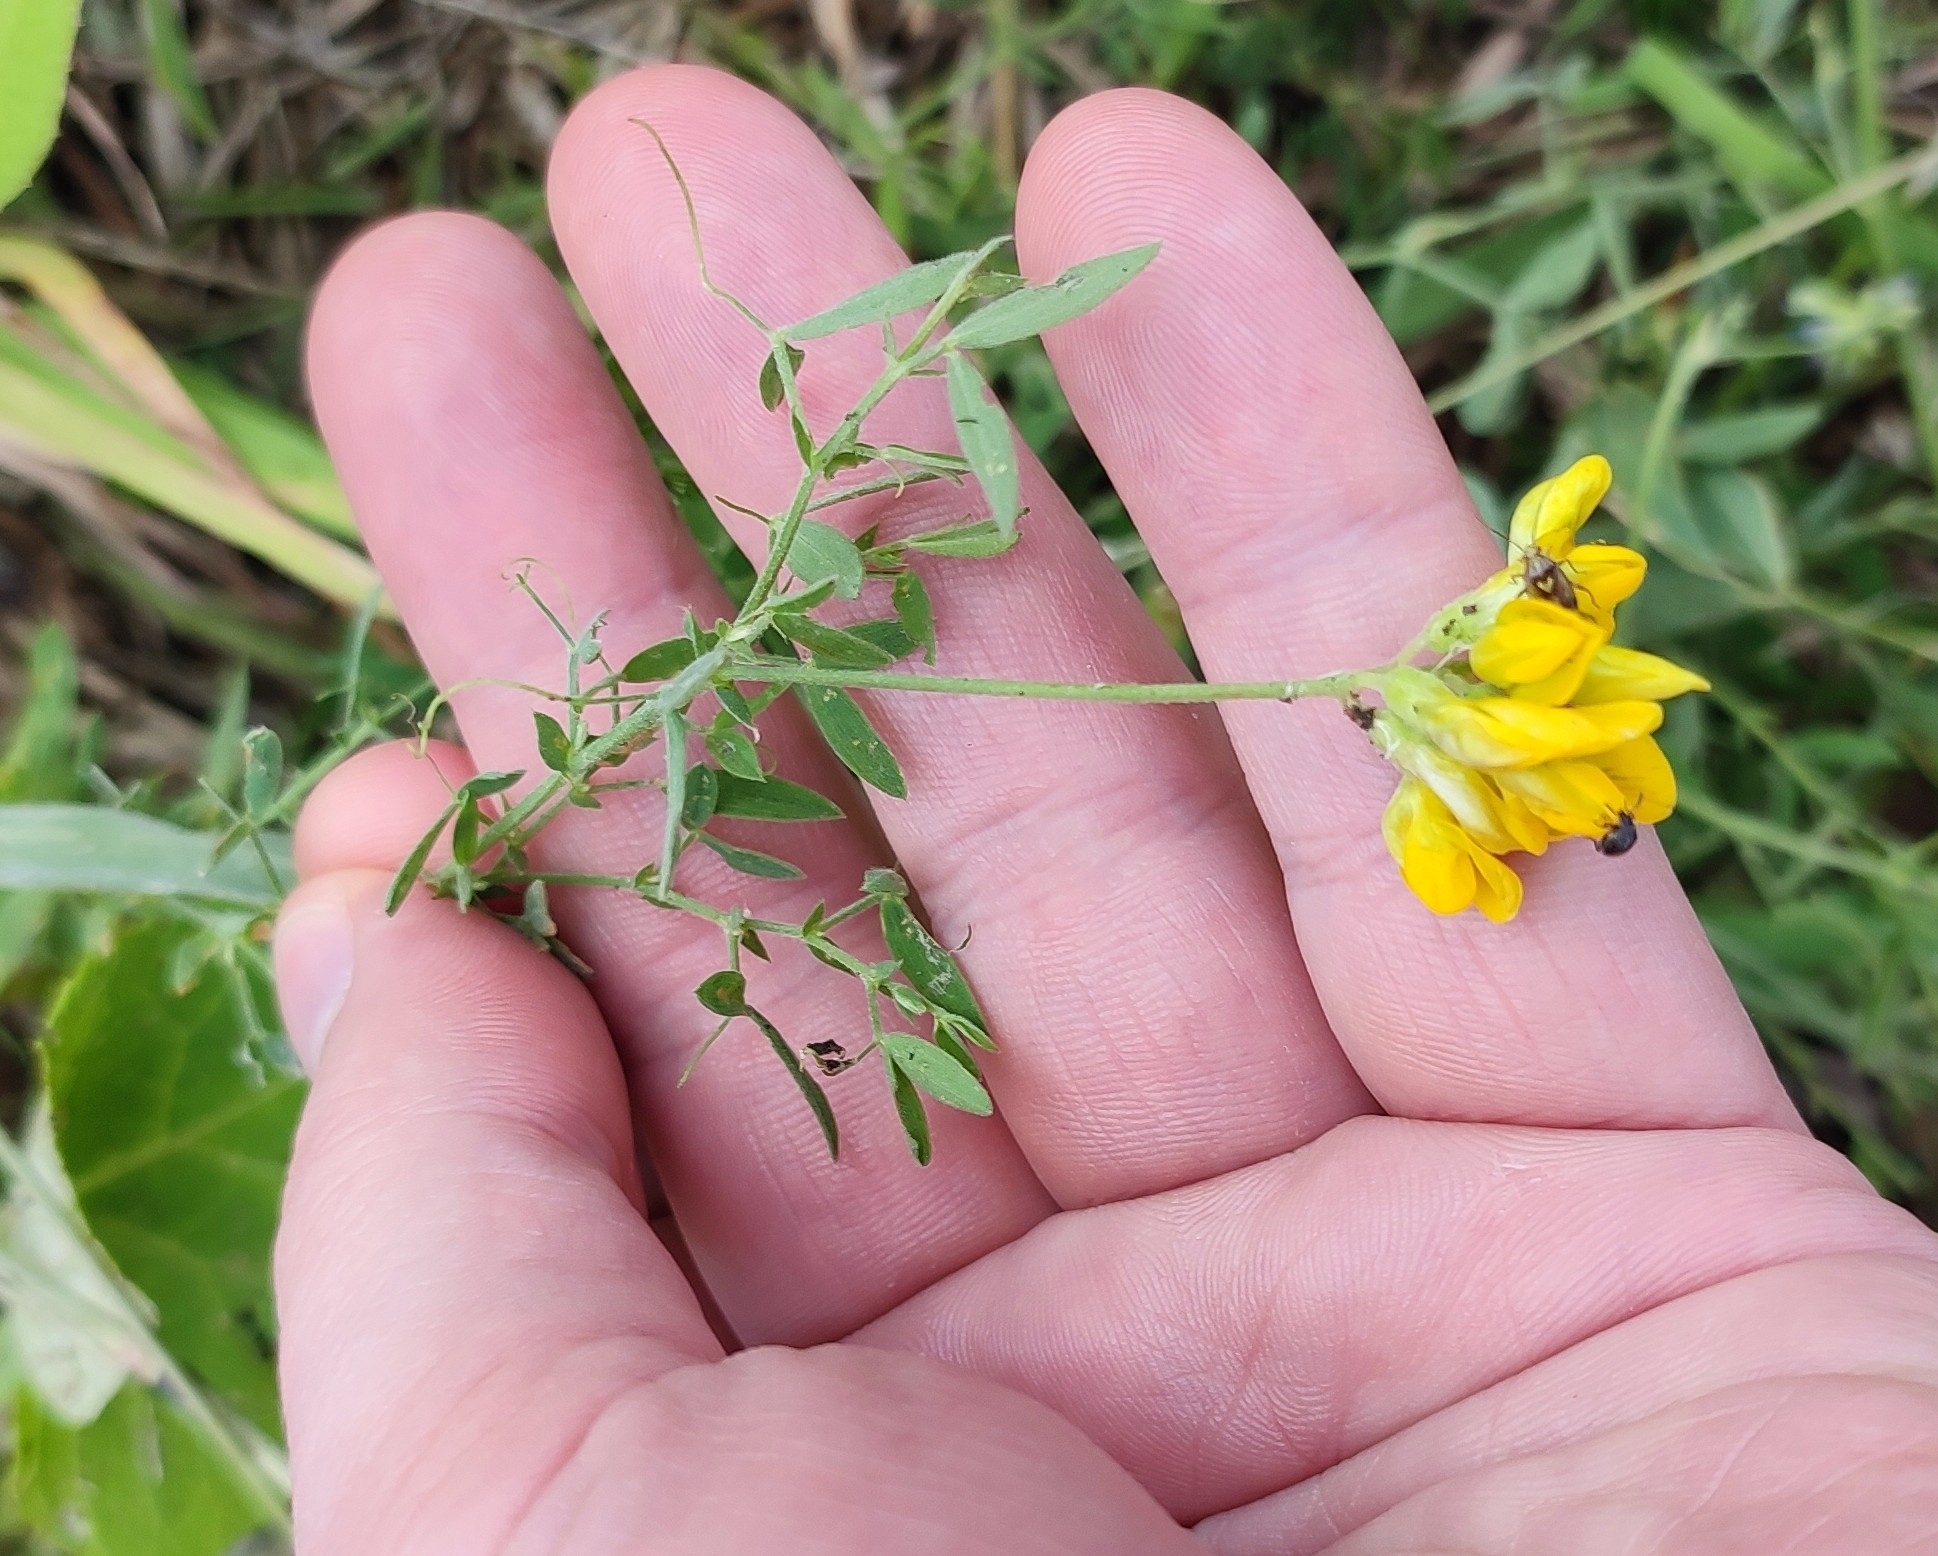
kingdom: Plantae
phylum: Tracheophyta
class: Magnoliopsida
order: Fabales
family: Fabaceae
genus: Lathyrus
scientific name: Lathyrus pratensis
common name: Meadow vetchling
